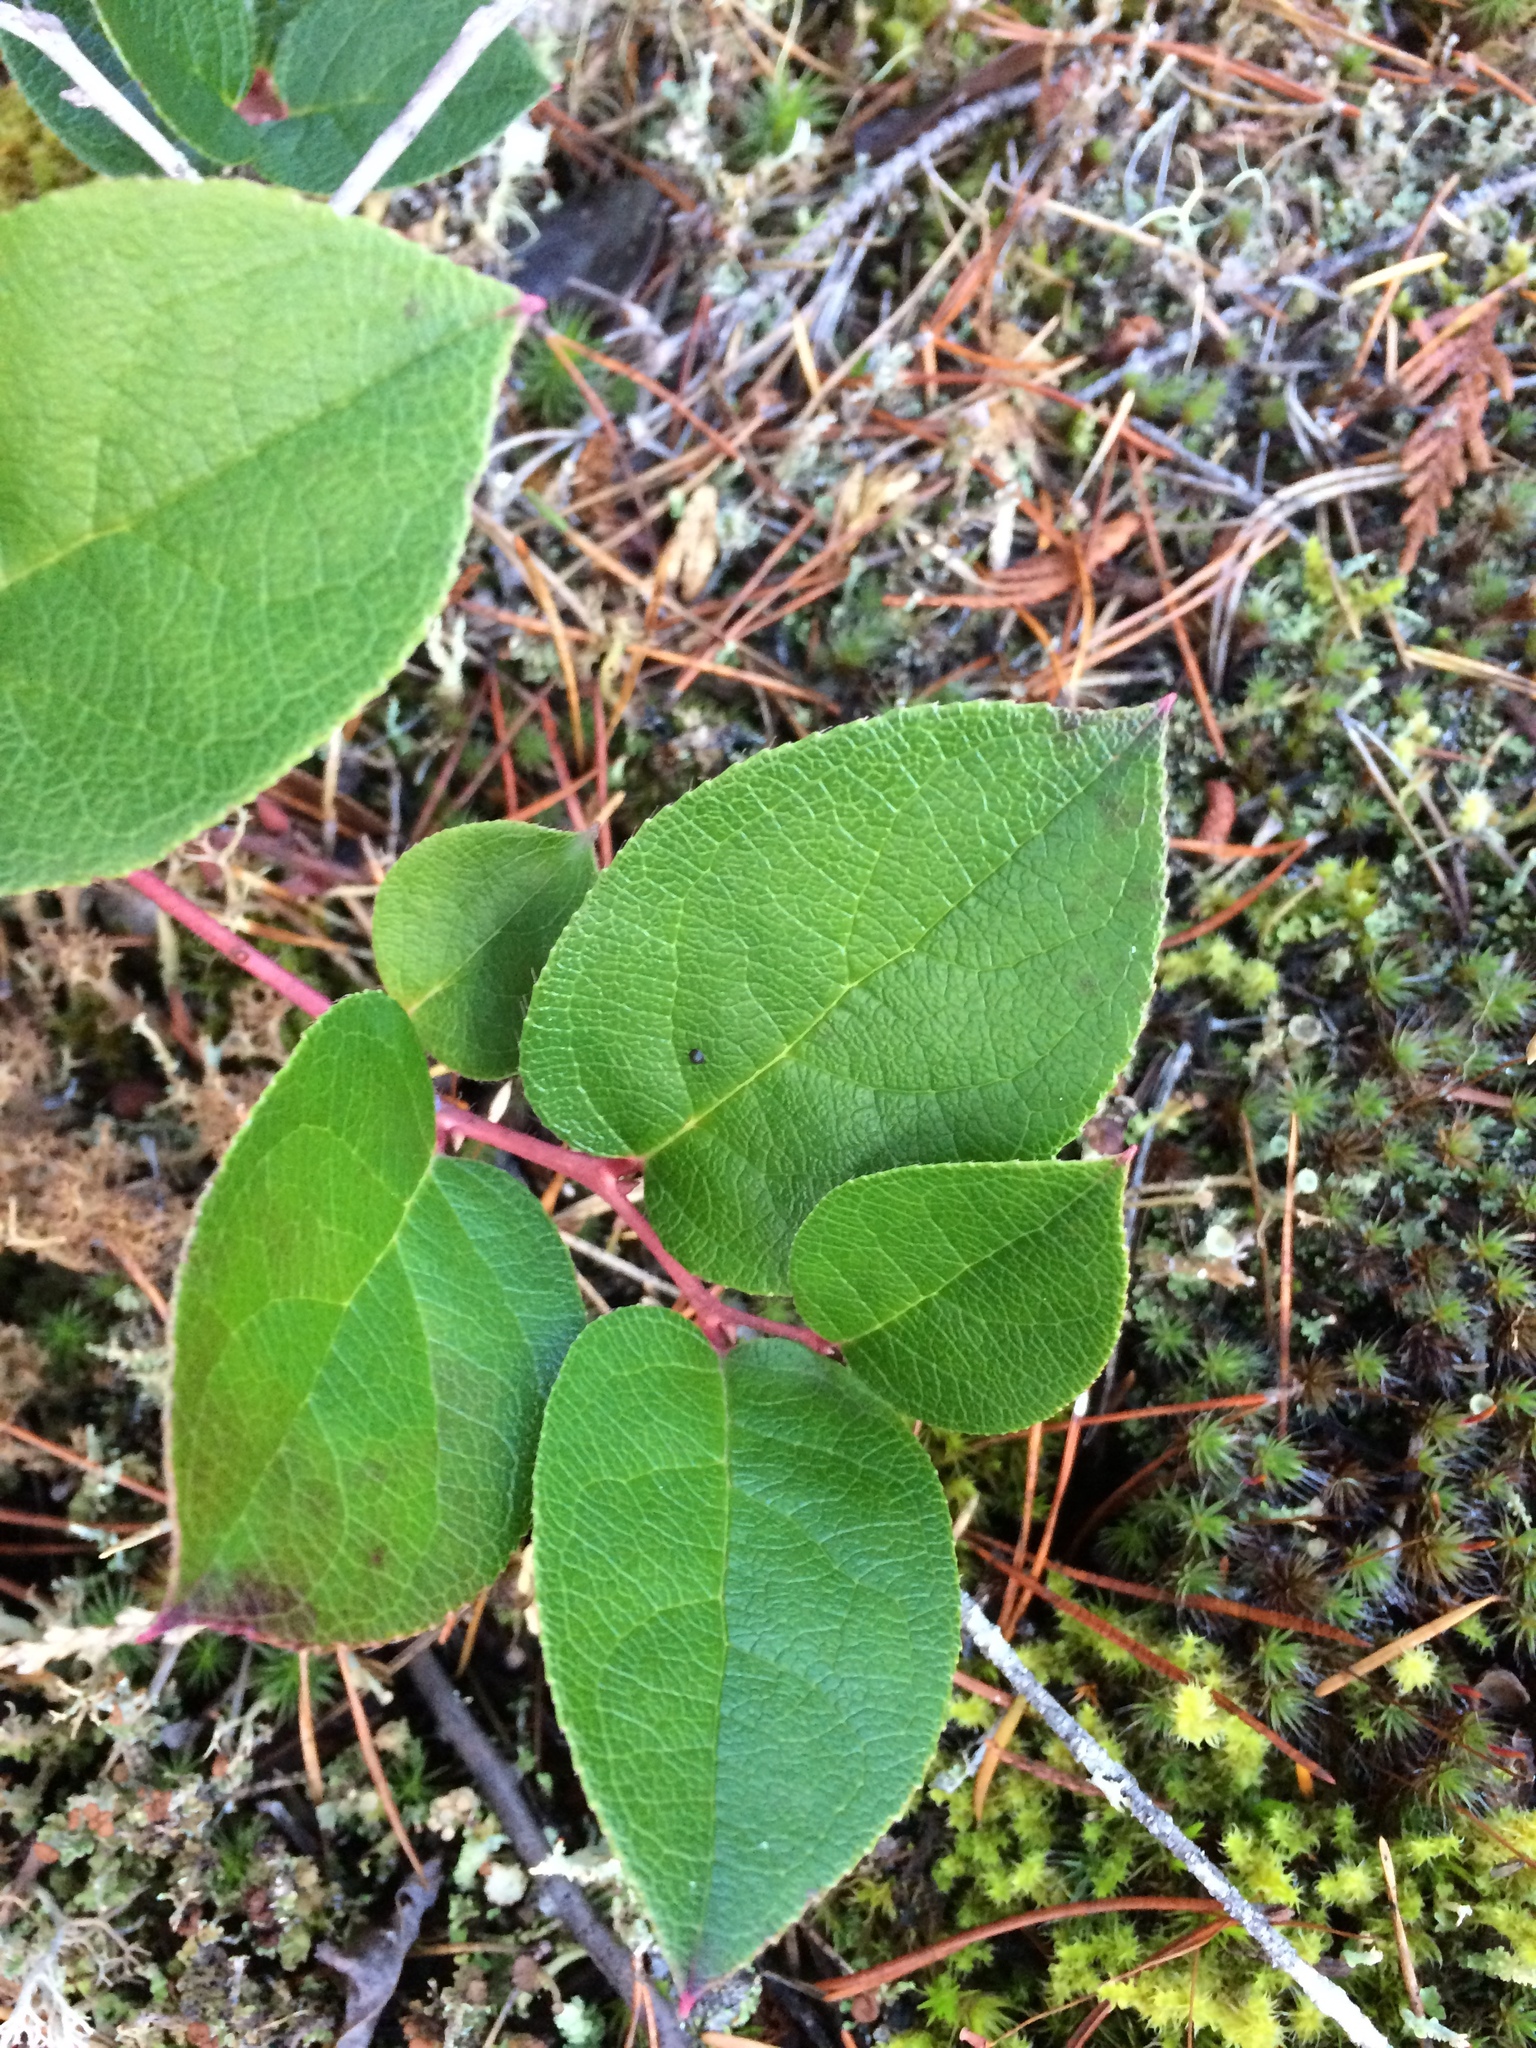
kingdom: Plantae
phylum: Tracheophyta
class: Magnoliopsida
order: Ericales
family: Ericaceae
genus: Gaultheria
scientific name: Gaultheria shallon
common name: Shallon
